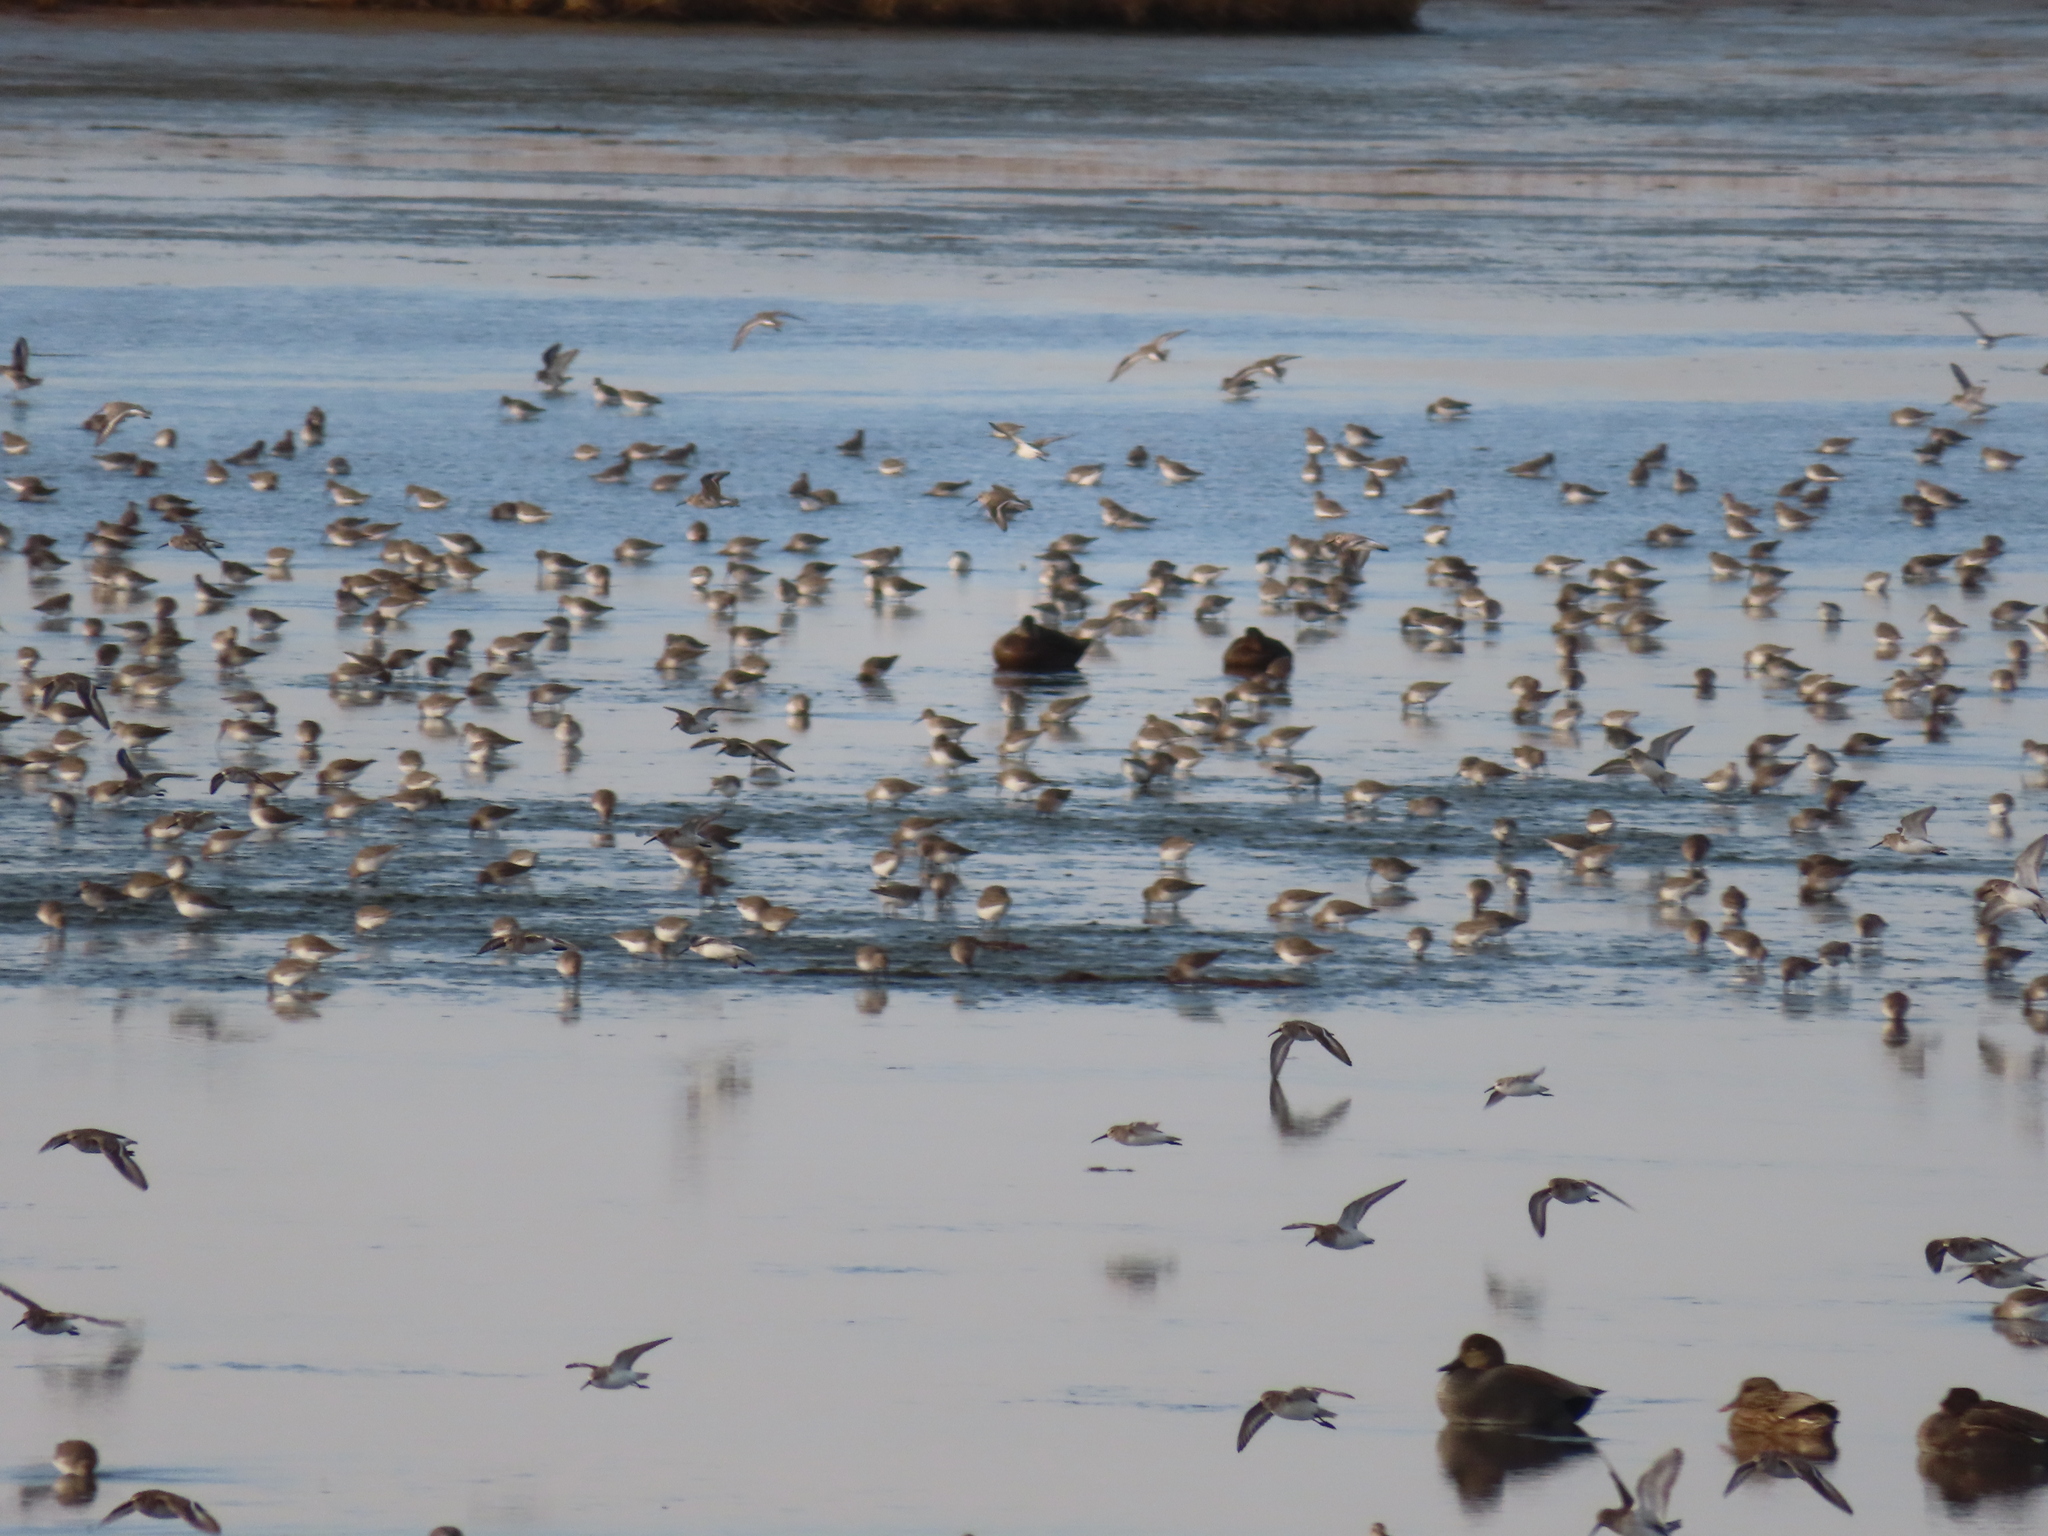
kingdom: Animalia
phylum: Chordata
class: Aves
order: Charadriiformes
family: Scolopacidae
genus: Calidris
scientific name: Calidris alpina
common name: Dunlin
